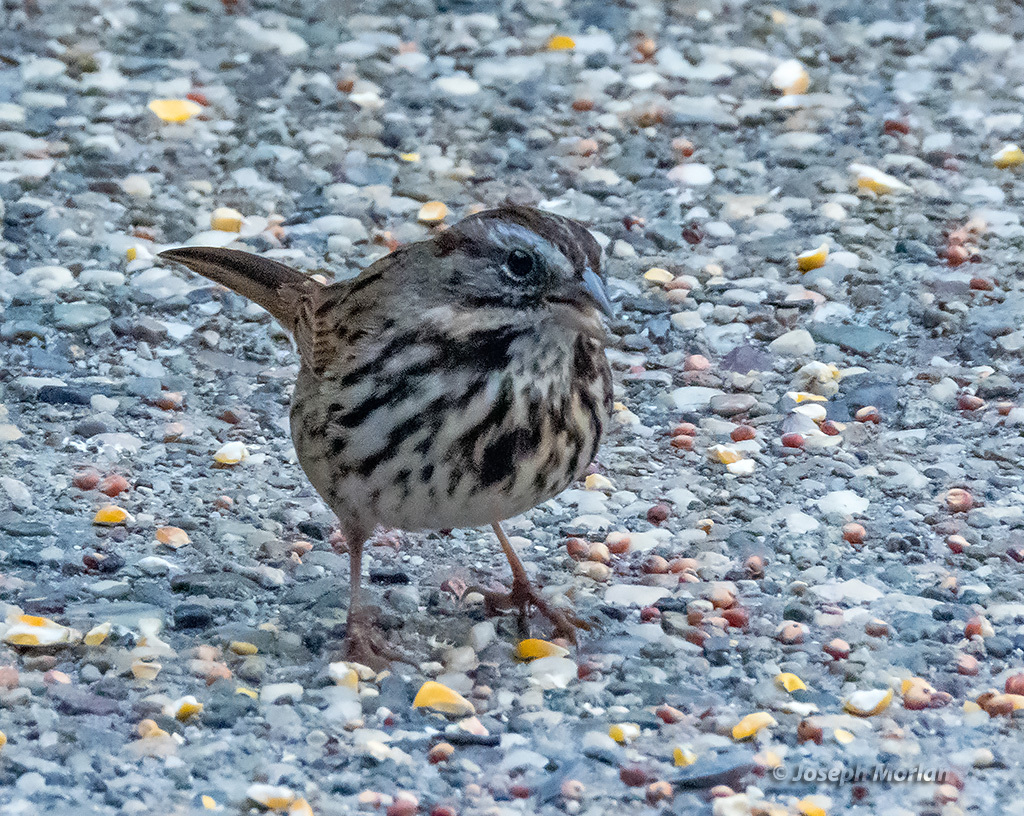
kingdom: Animalia
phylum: Chordata
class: Aves
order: Passeriformes
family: Passerellidae
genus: Melospiza
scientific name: Melospiza melodia
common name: Song sparrow
